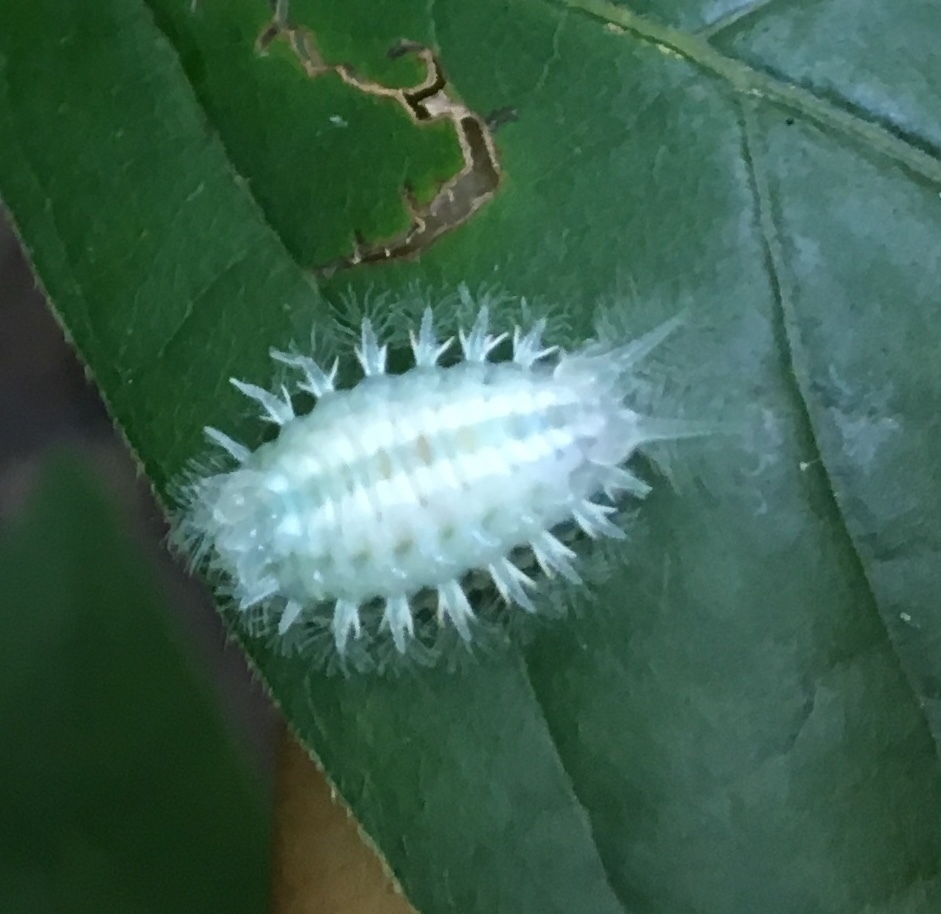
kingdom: Animalia
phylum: Arthropoda
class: Insecta
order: Lepidoptera
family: Limacodidae
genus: Isochaetes
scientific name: Isochaetes beutenmuelleri
